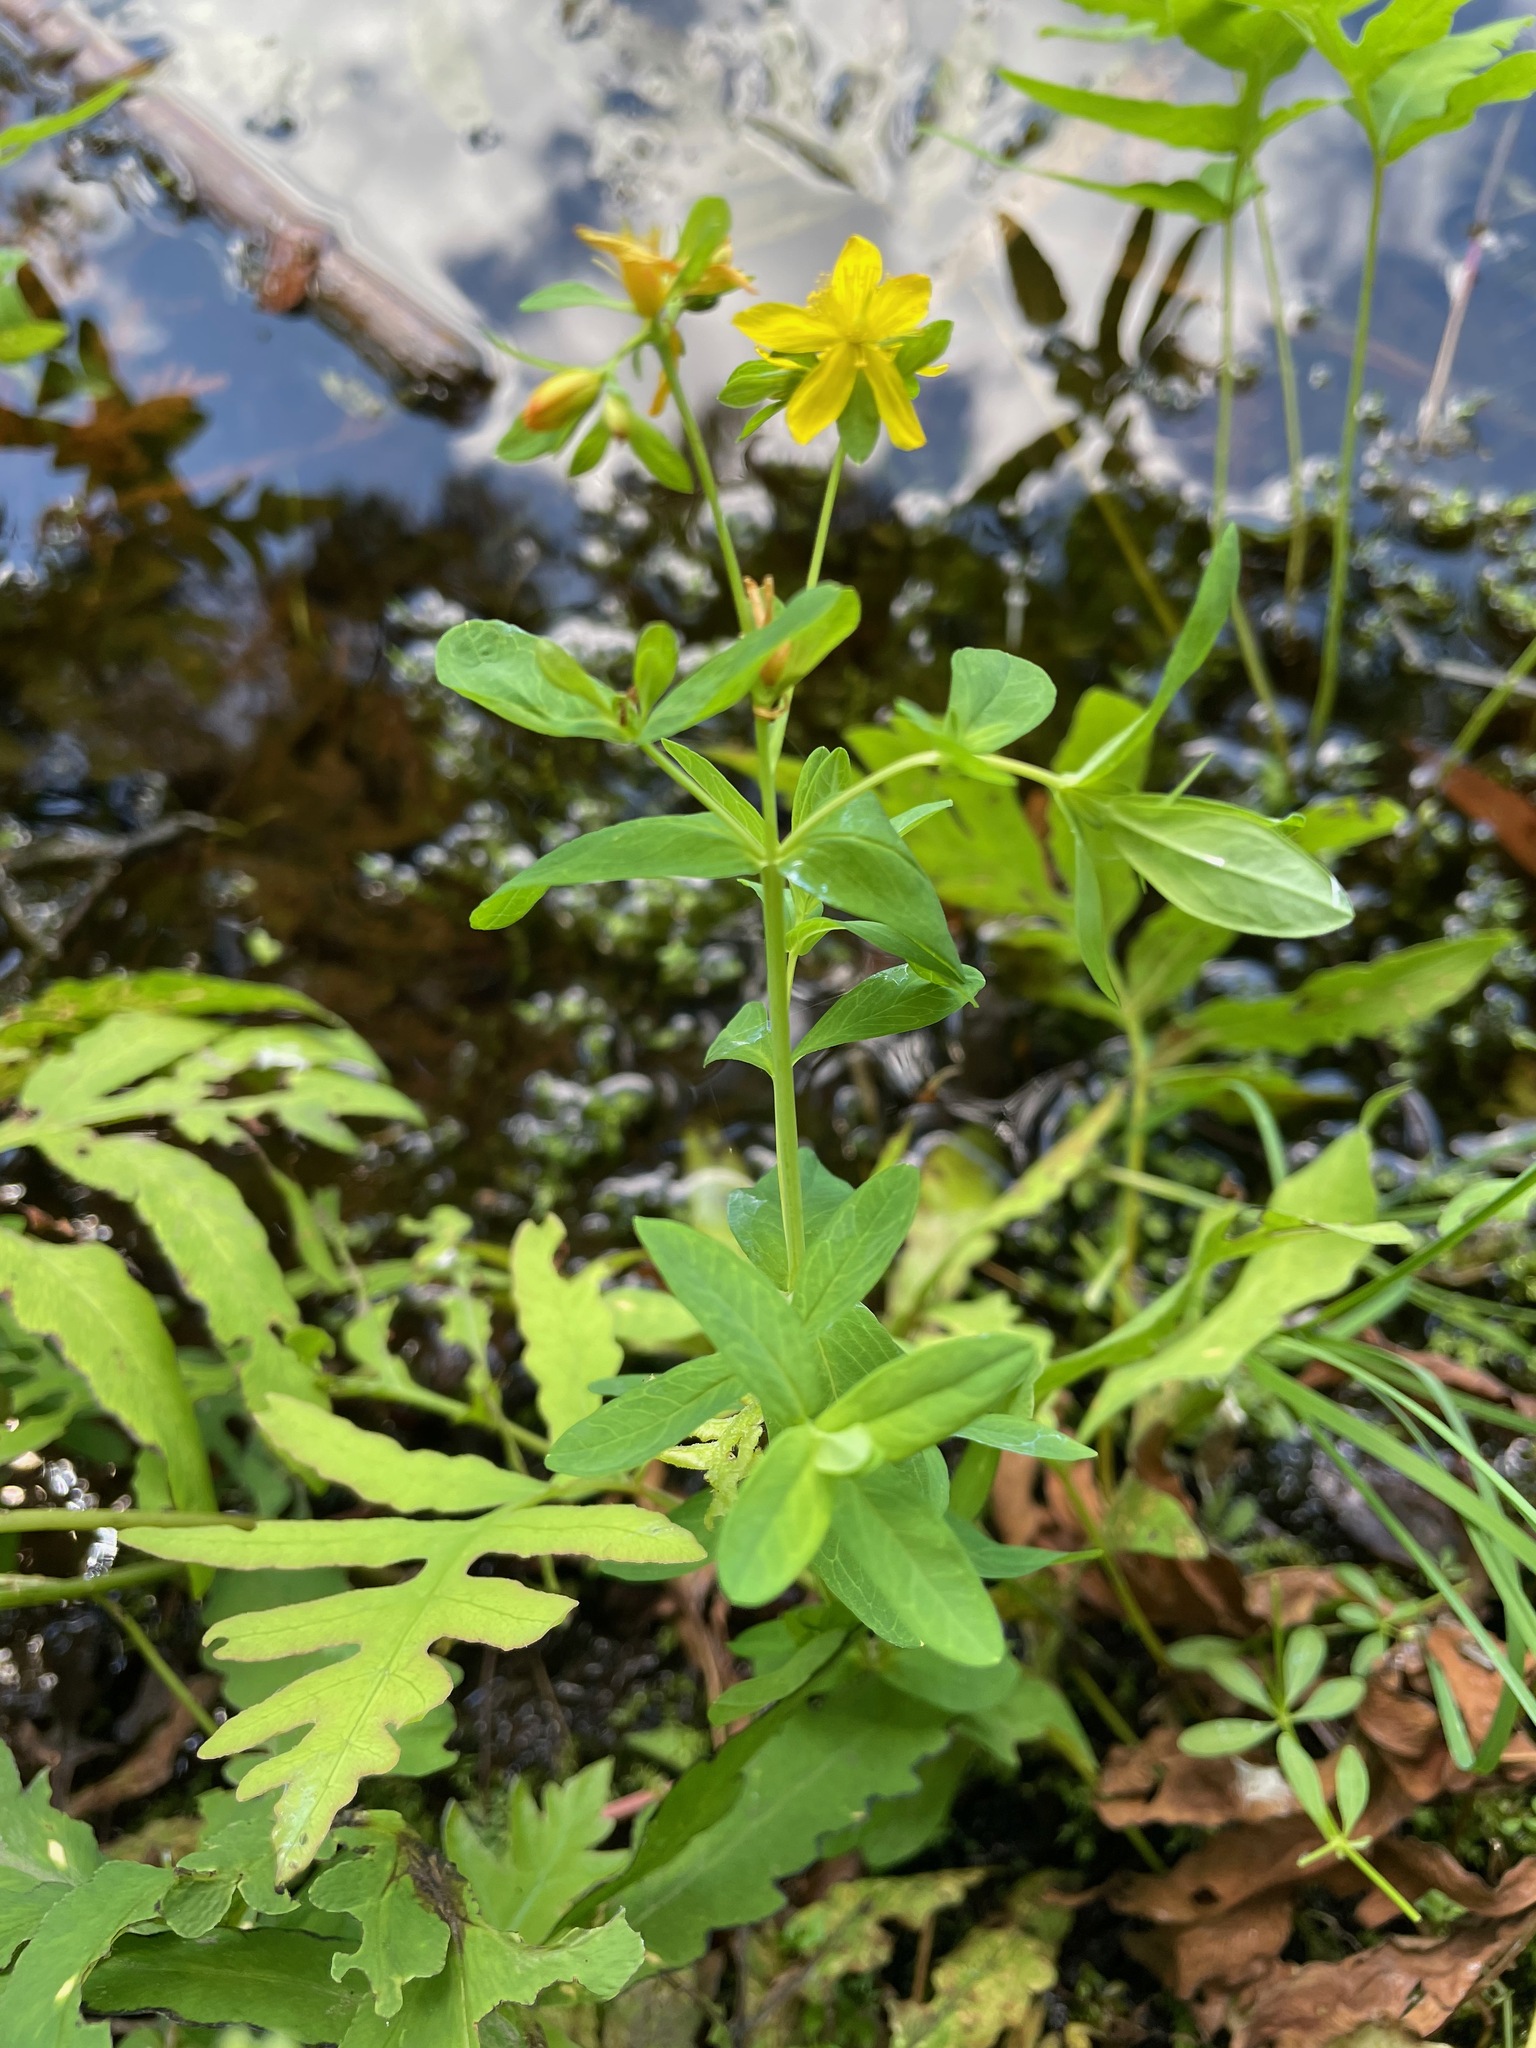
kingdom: Plantae
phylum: Tracheophyta
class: Magnoliopsida
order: Malpighiales
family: Hypericaceae
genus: Hypericum
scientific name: Hypericum perforatum
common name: Common st. johnswort
